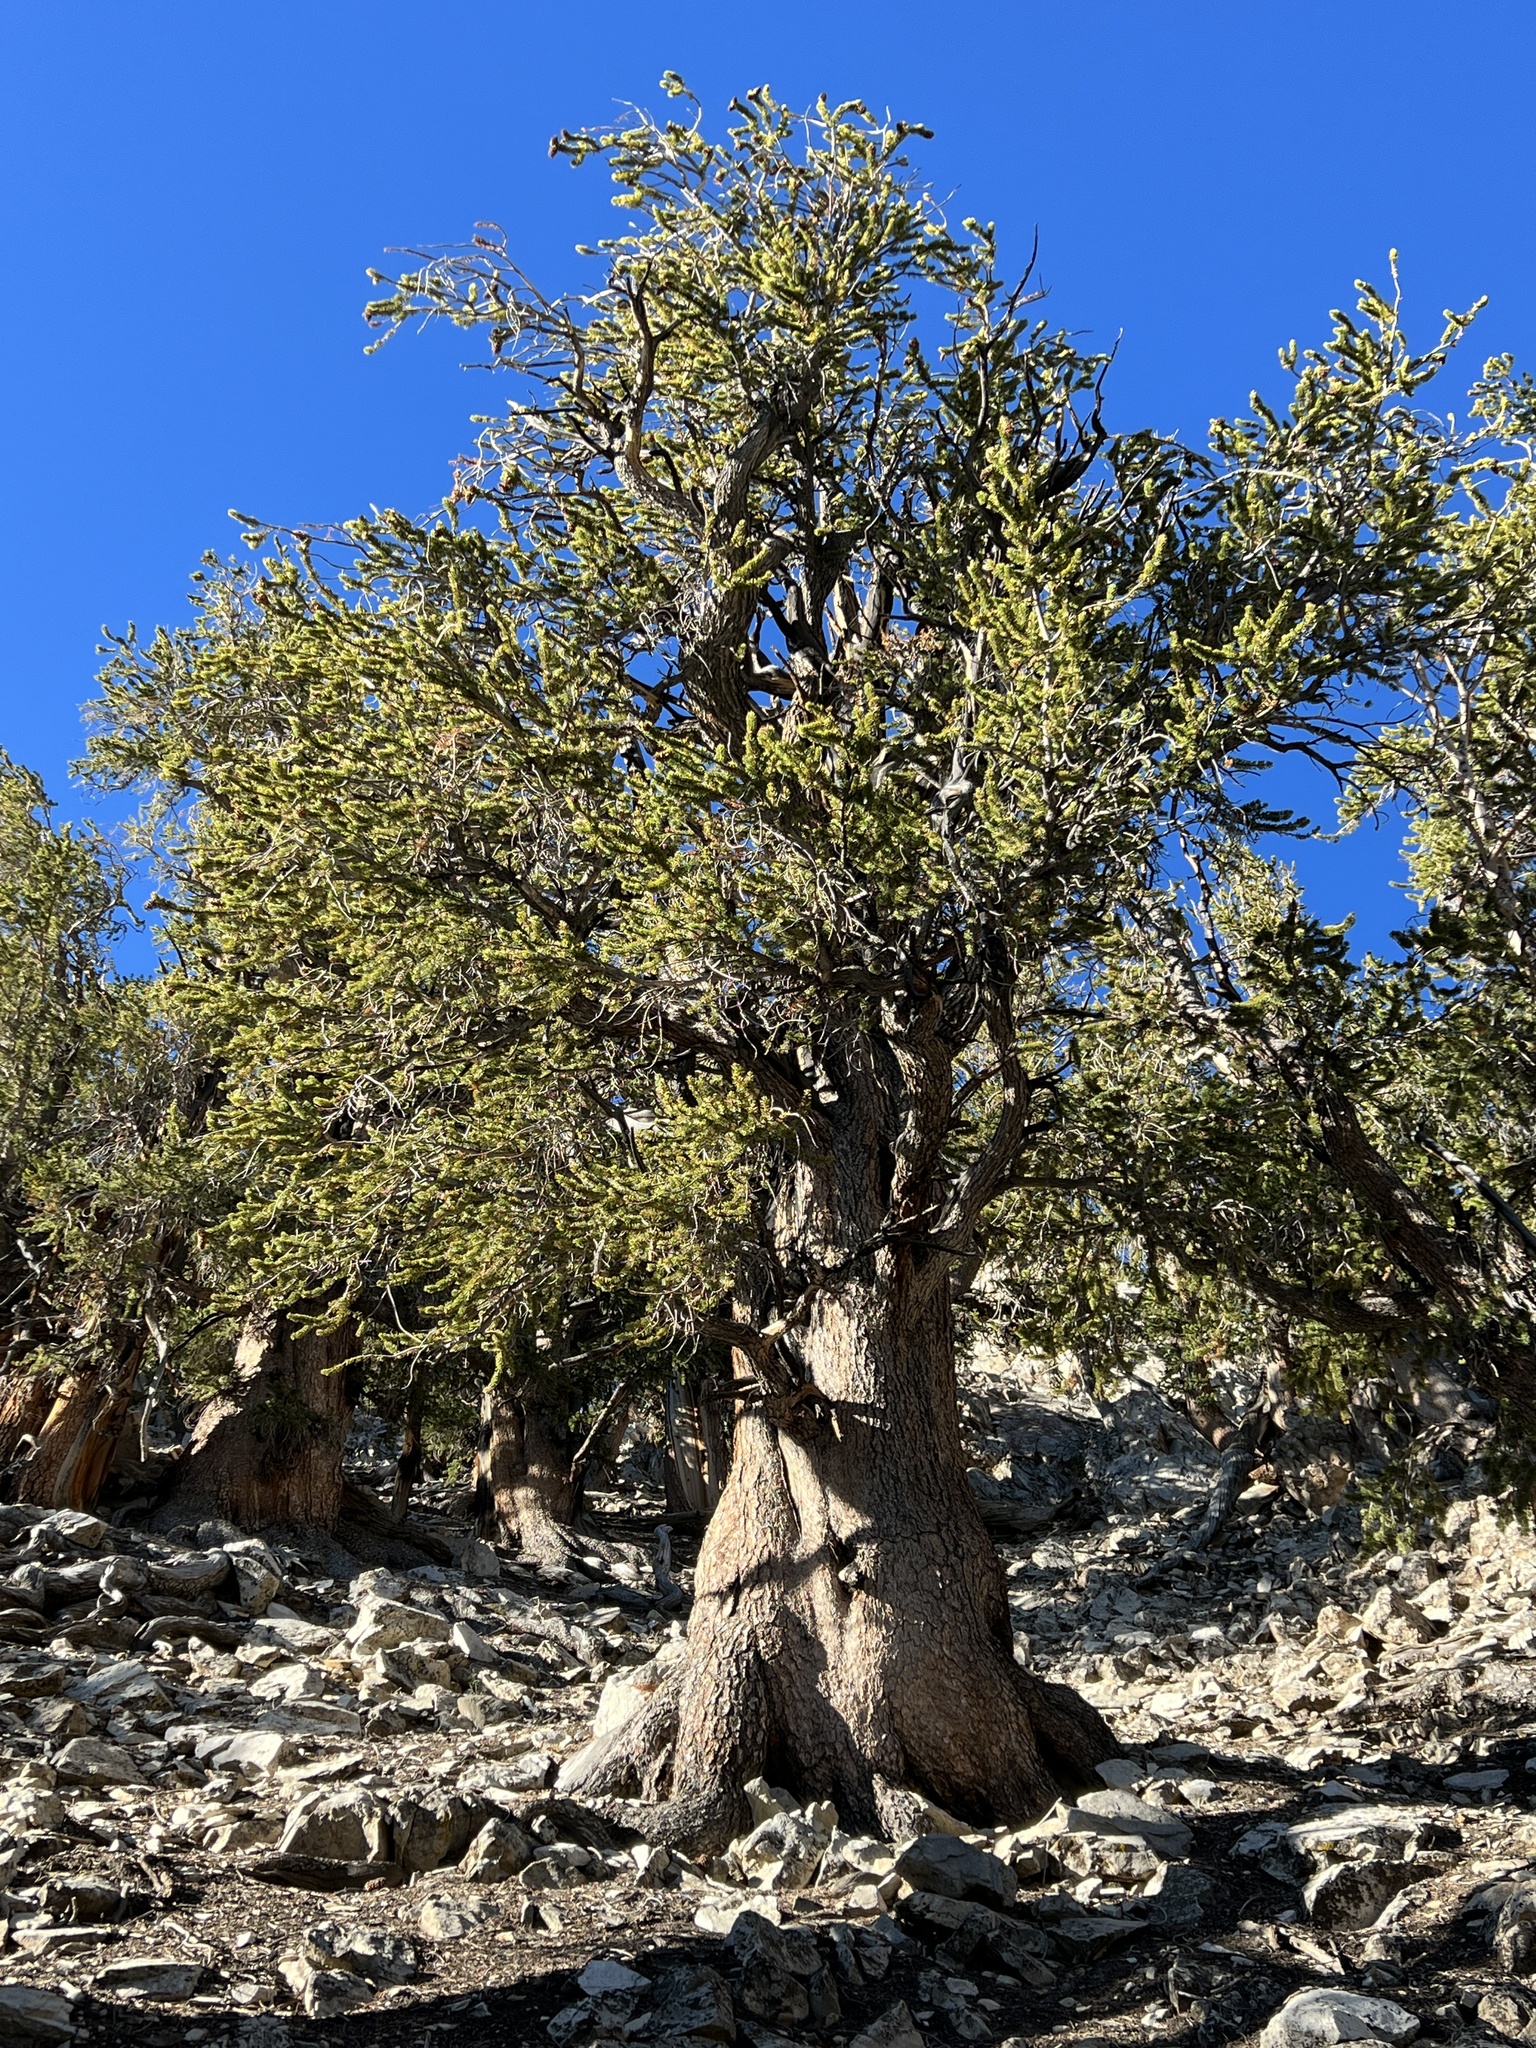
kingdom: Plantae
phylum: Tracheophyta
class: Pinopsida
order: Pinales
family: Pinaceae
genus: Pinus
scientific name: Pinus longaeva
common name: Intermountain bristlecone pine
